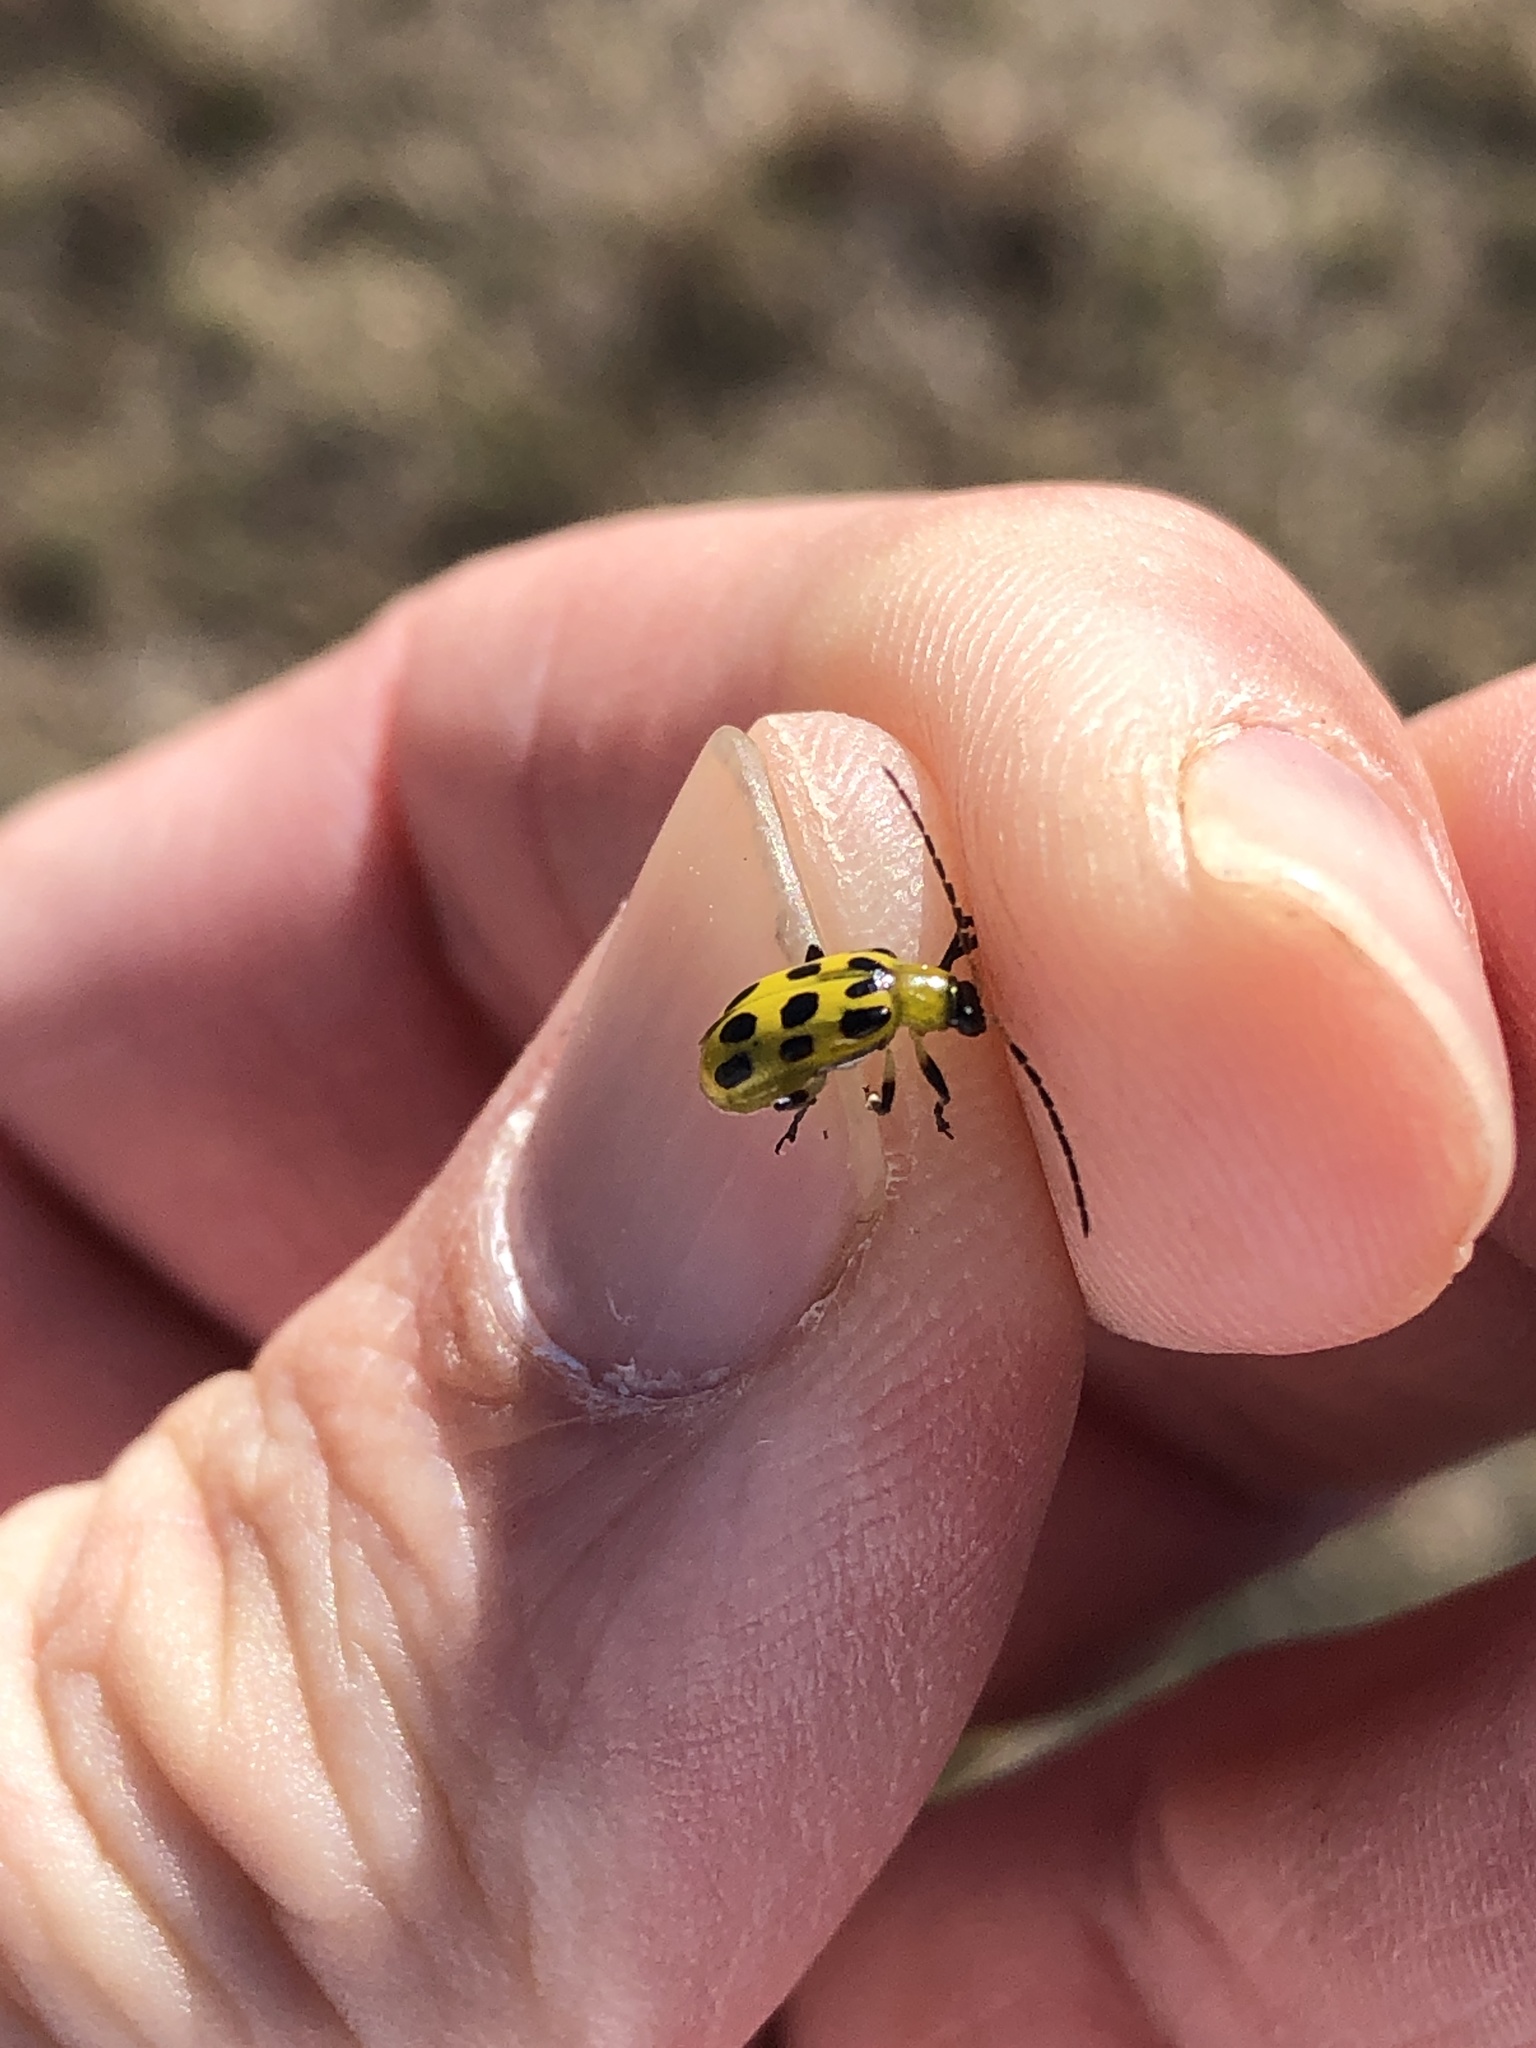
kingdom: Animalia
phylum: Arthropoda
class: Insecta
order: Coleoptera
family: Chrysomelidae
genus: Diabrotica
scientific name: Diabrotica undecimpunctata
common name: Spotted cucumber beetle
